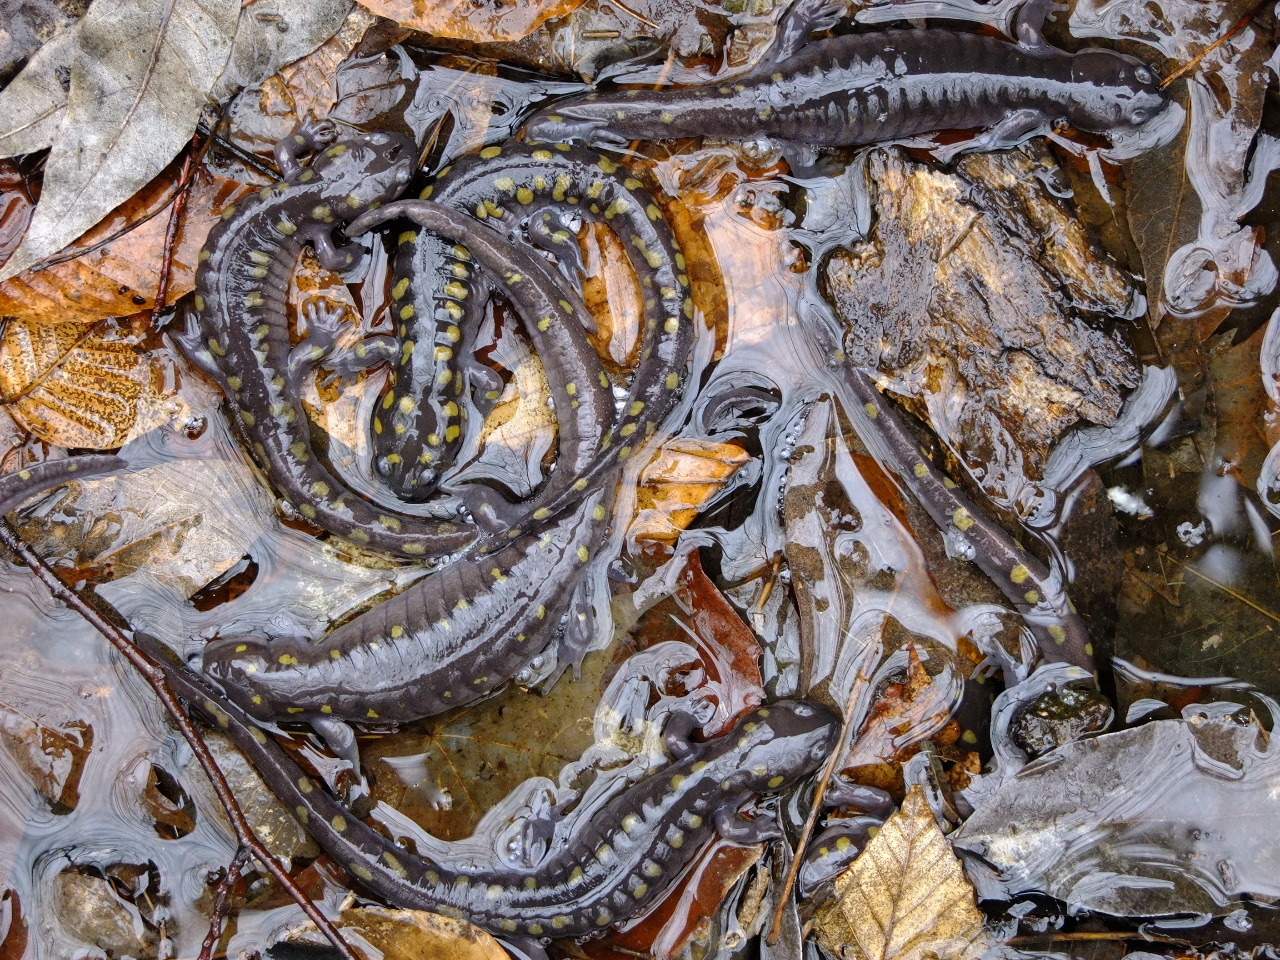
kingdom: Animalia
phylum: Chordata
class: Amphibia
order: Caudata
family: Ambystomatidae
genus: Ambystoma
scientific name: Ambystoma maculatum
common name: Spotted salamander
